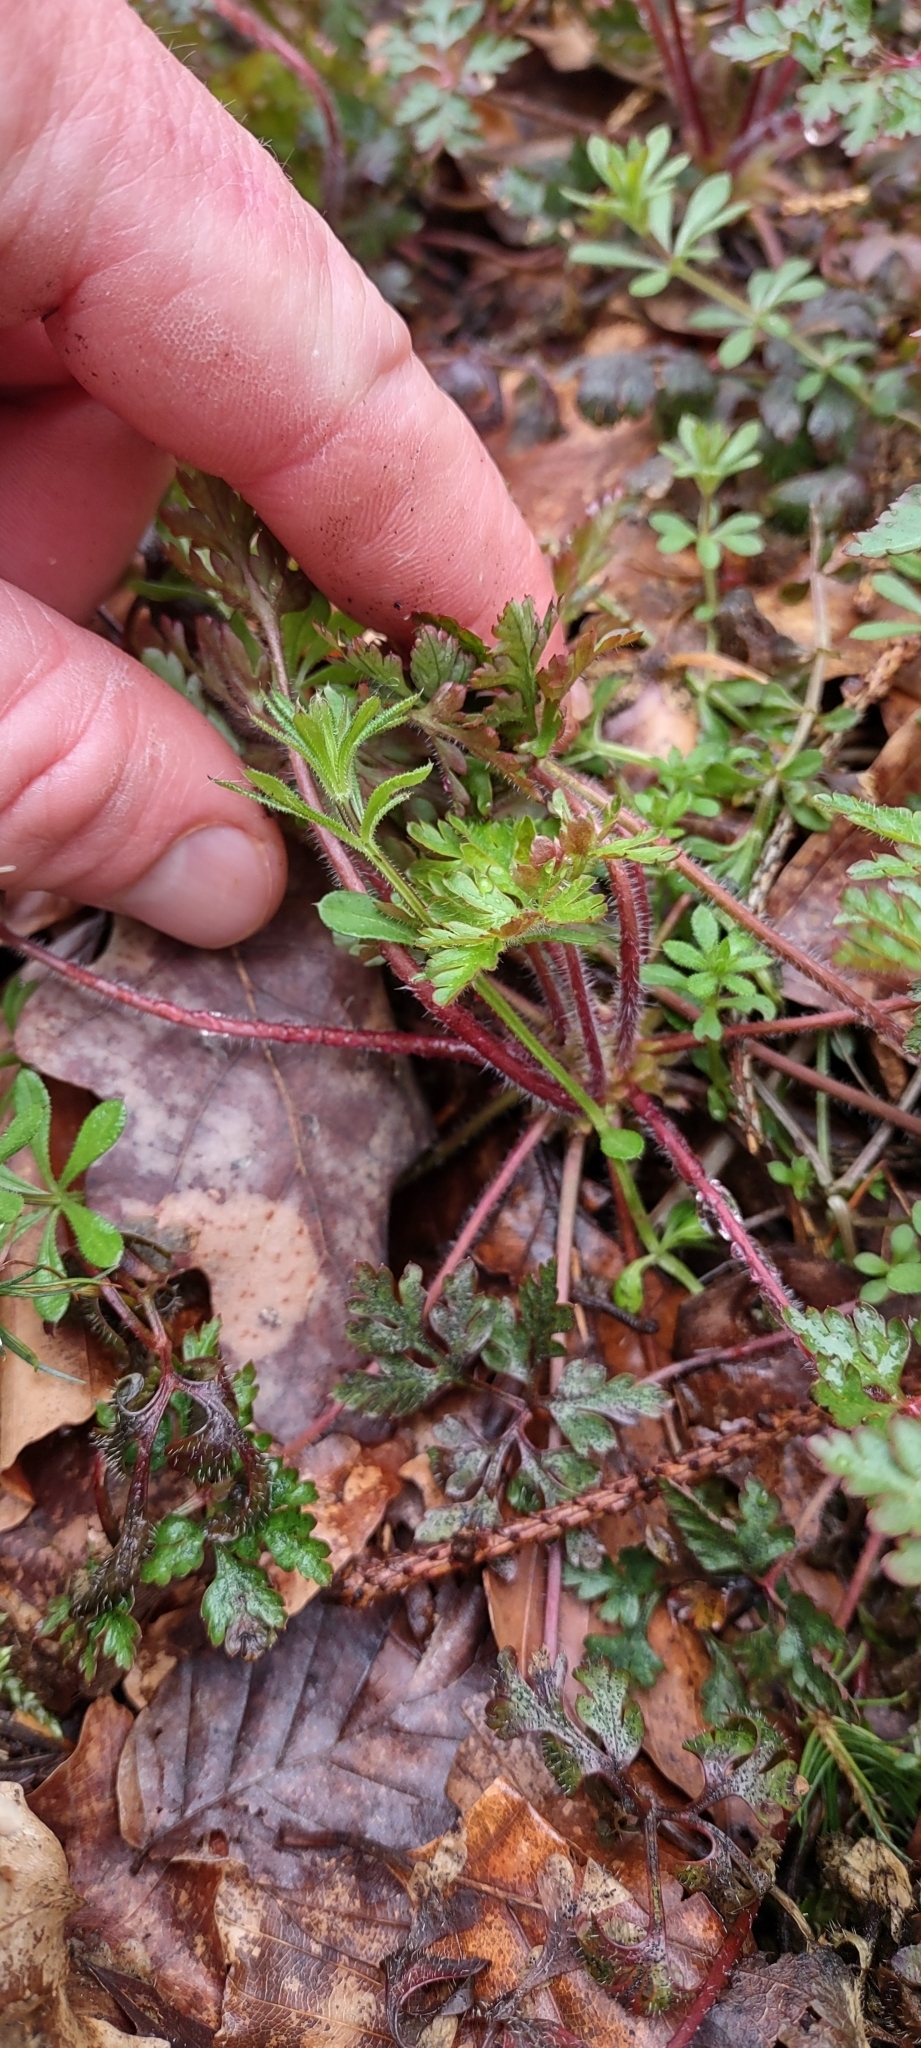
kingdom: Plantae
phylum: Tracheophyta
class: Magnoliopsida
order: Geraniales
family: Geraniaceae
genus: Geranium
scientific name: Geranium robertianum
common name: Herb-robert
